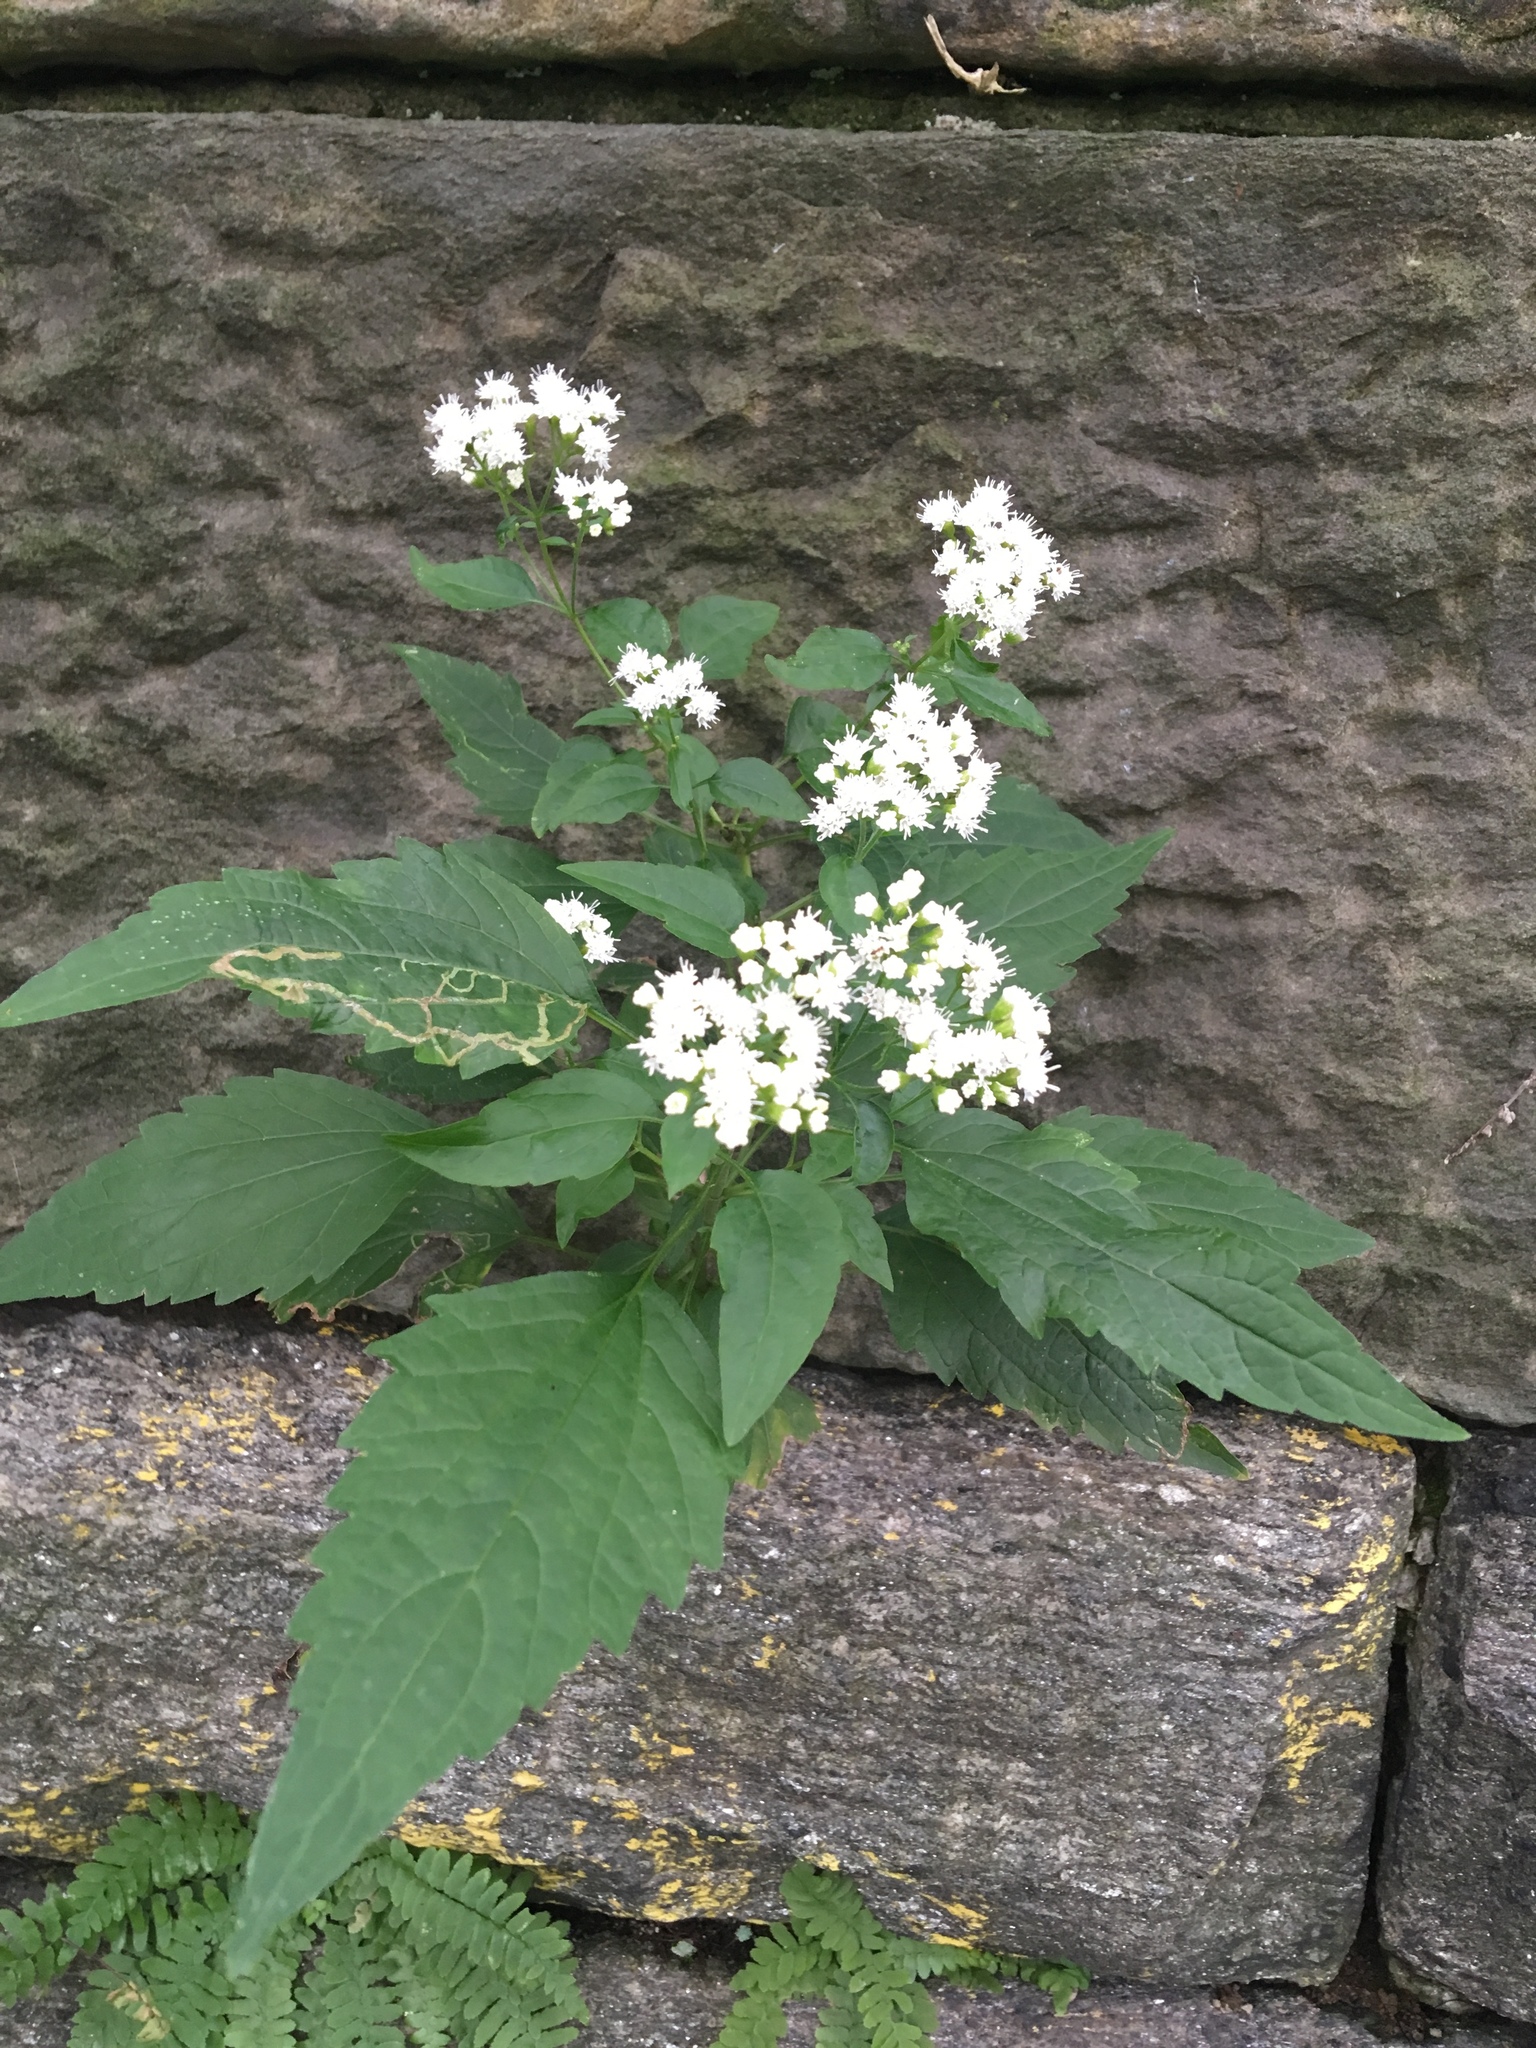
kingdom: Plantae
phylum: Tracheophyta
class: Magnoliopsida
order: Asterales
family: Asteraceae
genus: Ageratina
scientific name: Ageratina altissima
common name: White snakeroot
